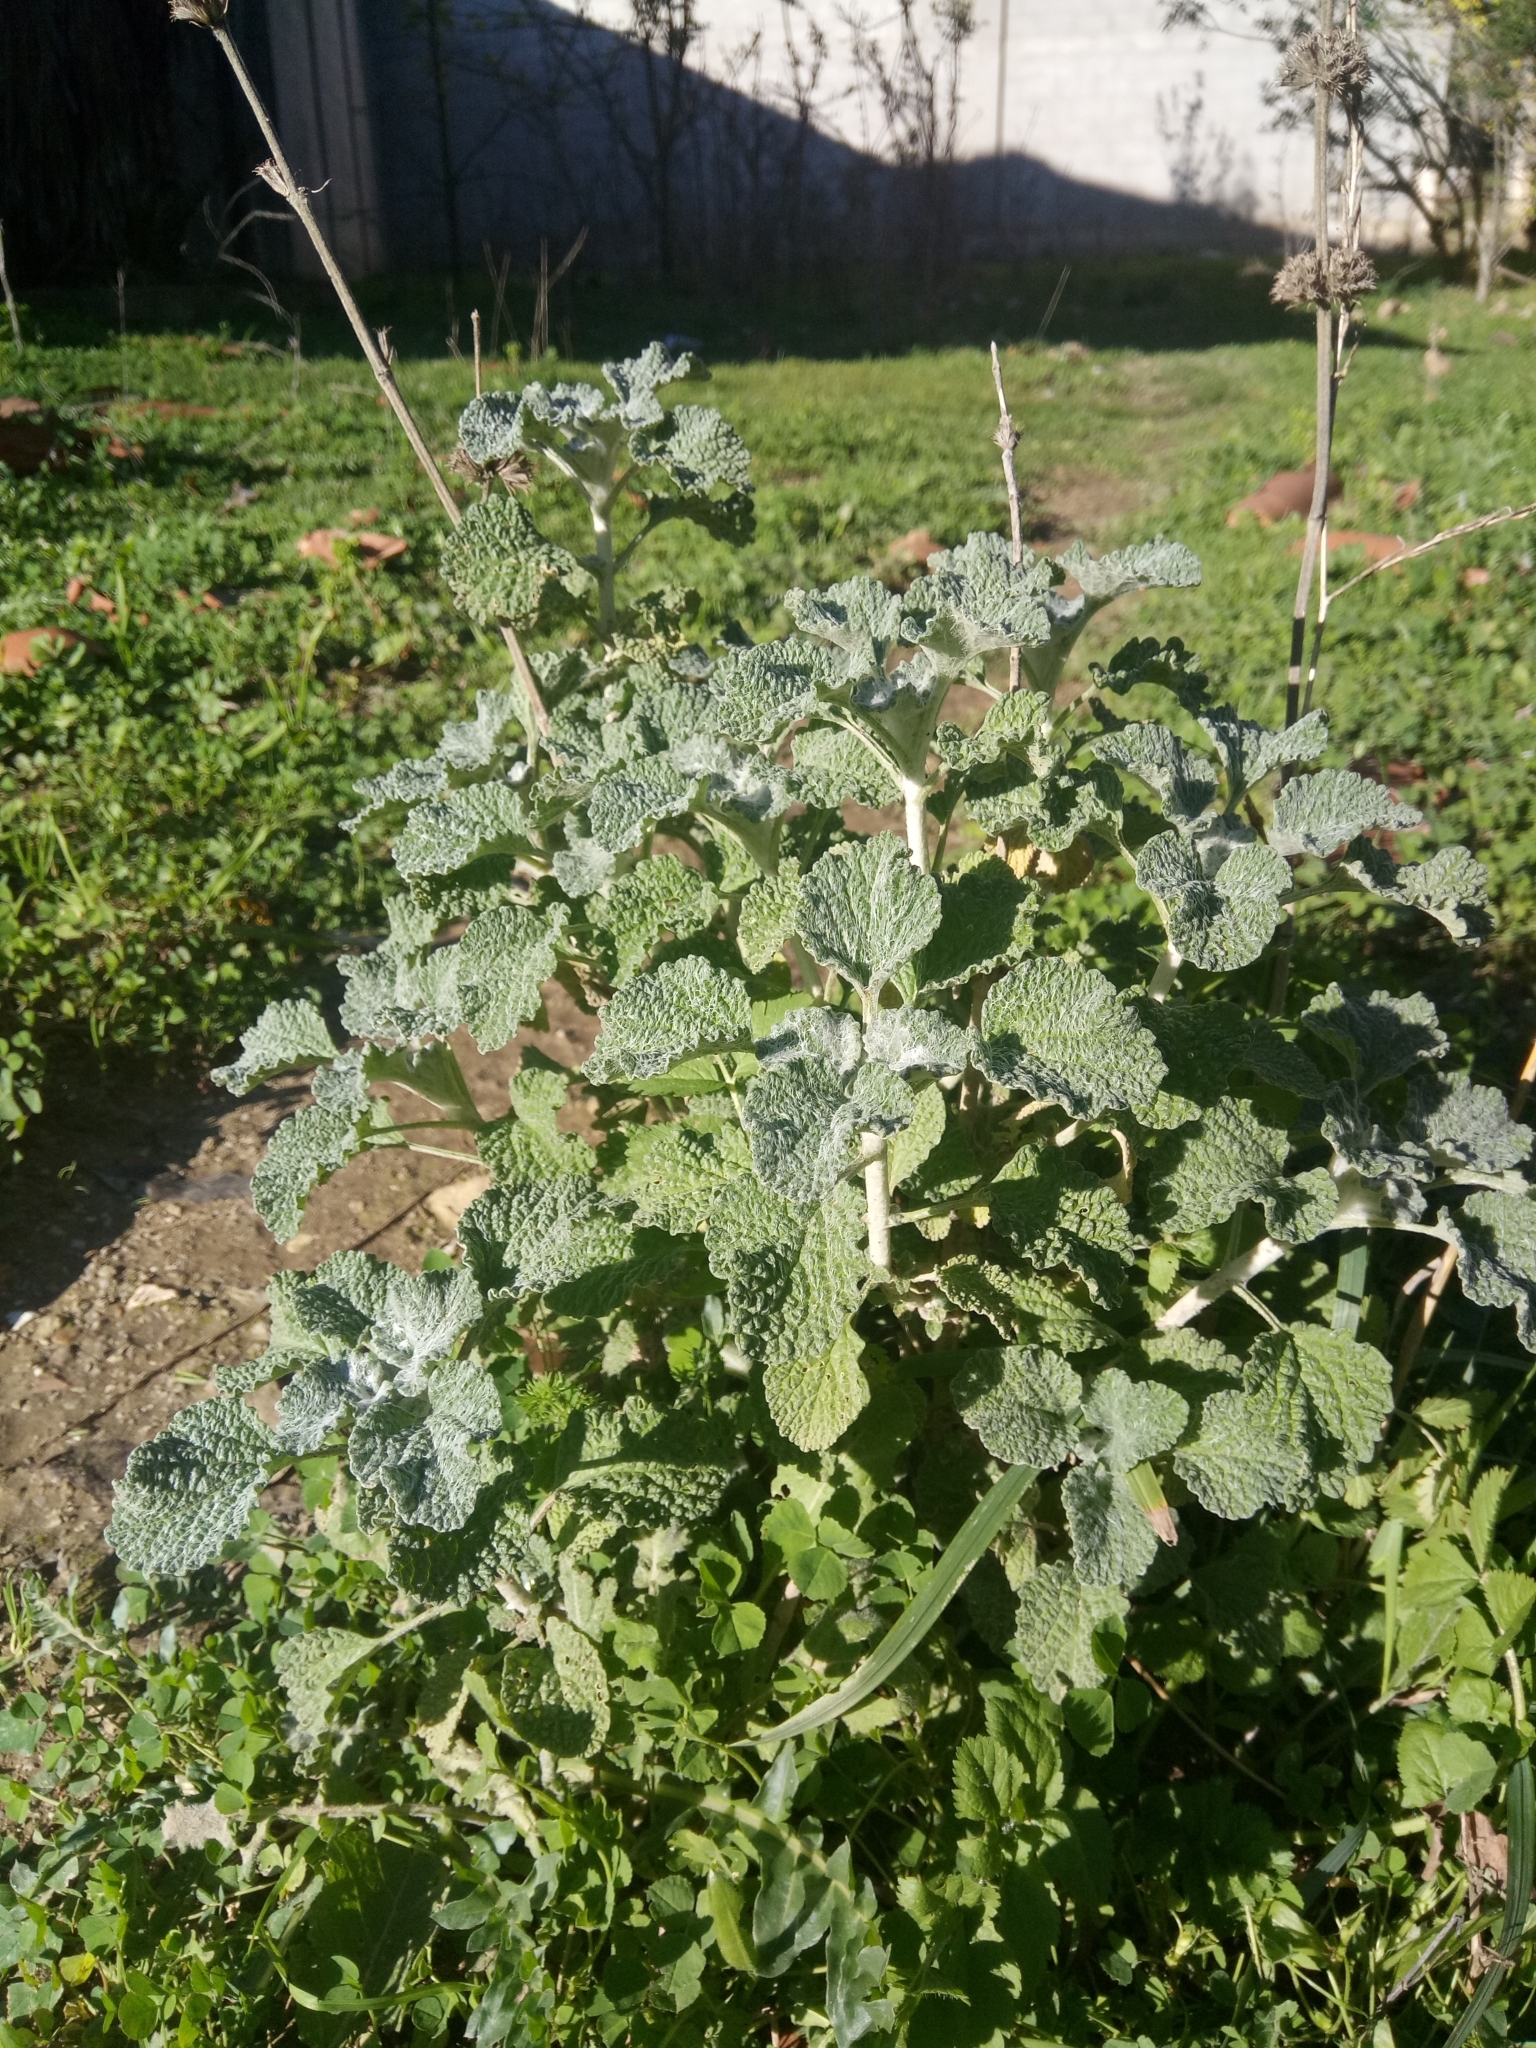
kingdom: Plantae
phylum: Tracheophyta
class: Magnoliopsida
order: Lamiales
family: Lamiaceae
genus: Marrubium
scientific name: Marrubium vulgare
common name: Horehound
